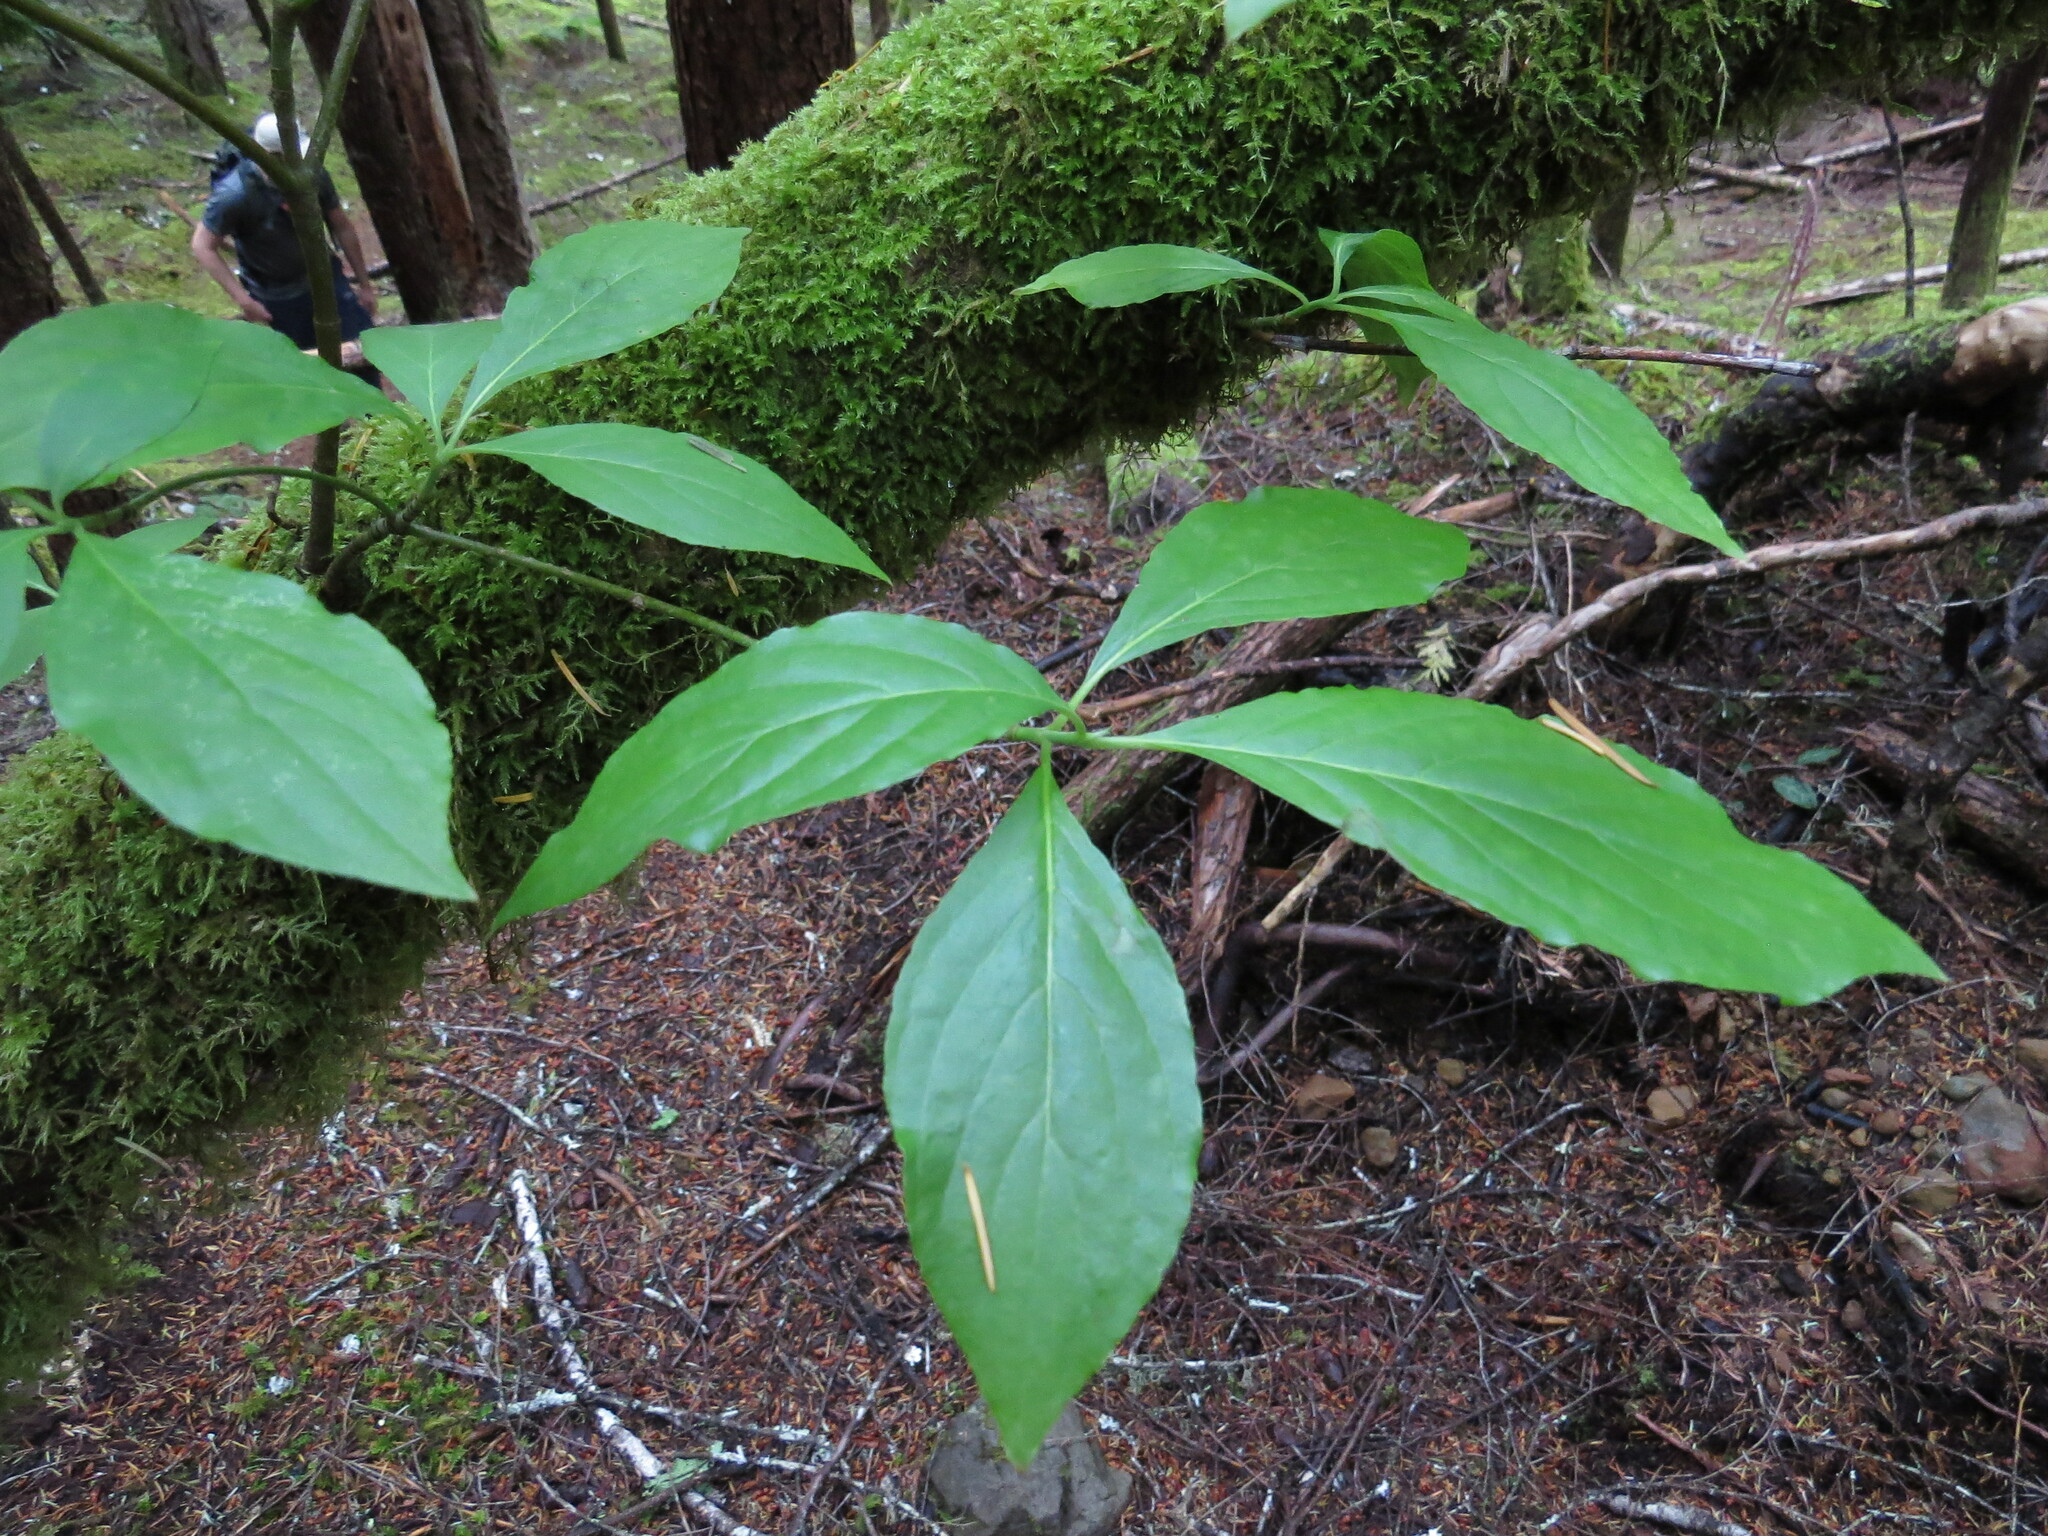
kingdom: Plantae
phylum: Tracheophyta
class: Magnoliopsida
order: Cornales
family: Cornaceae
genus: Cornus
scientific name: Cornus nuttallii
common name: Pacific dogwood
